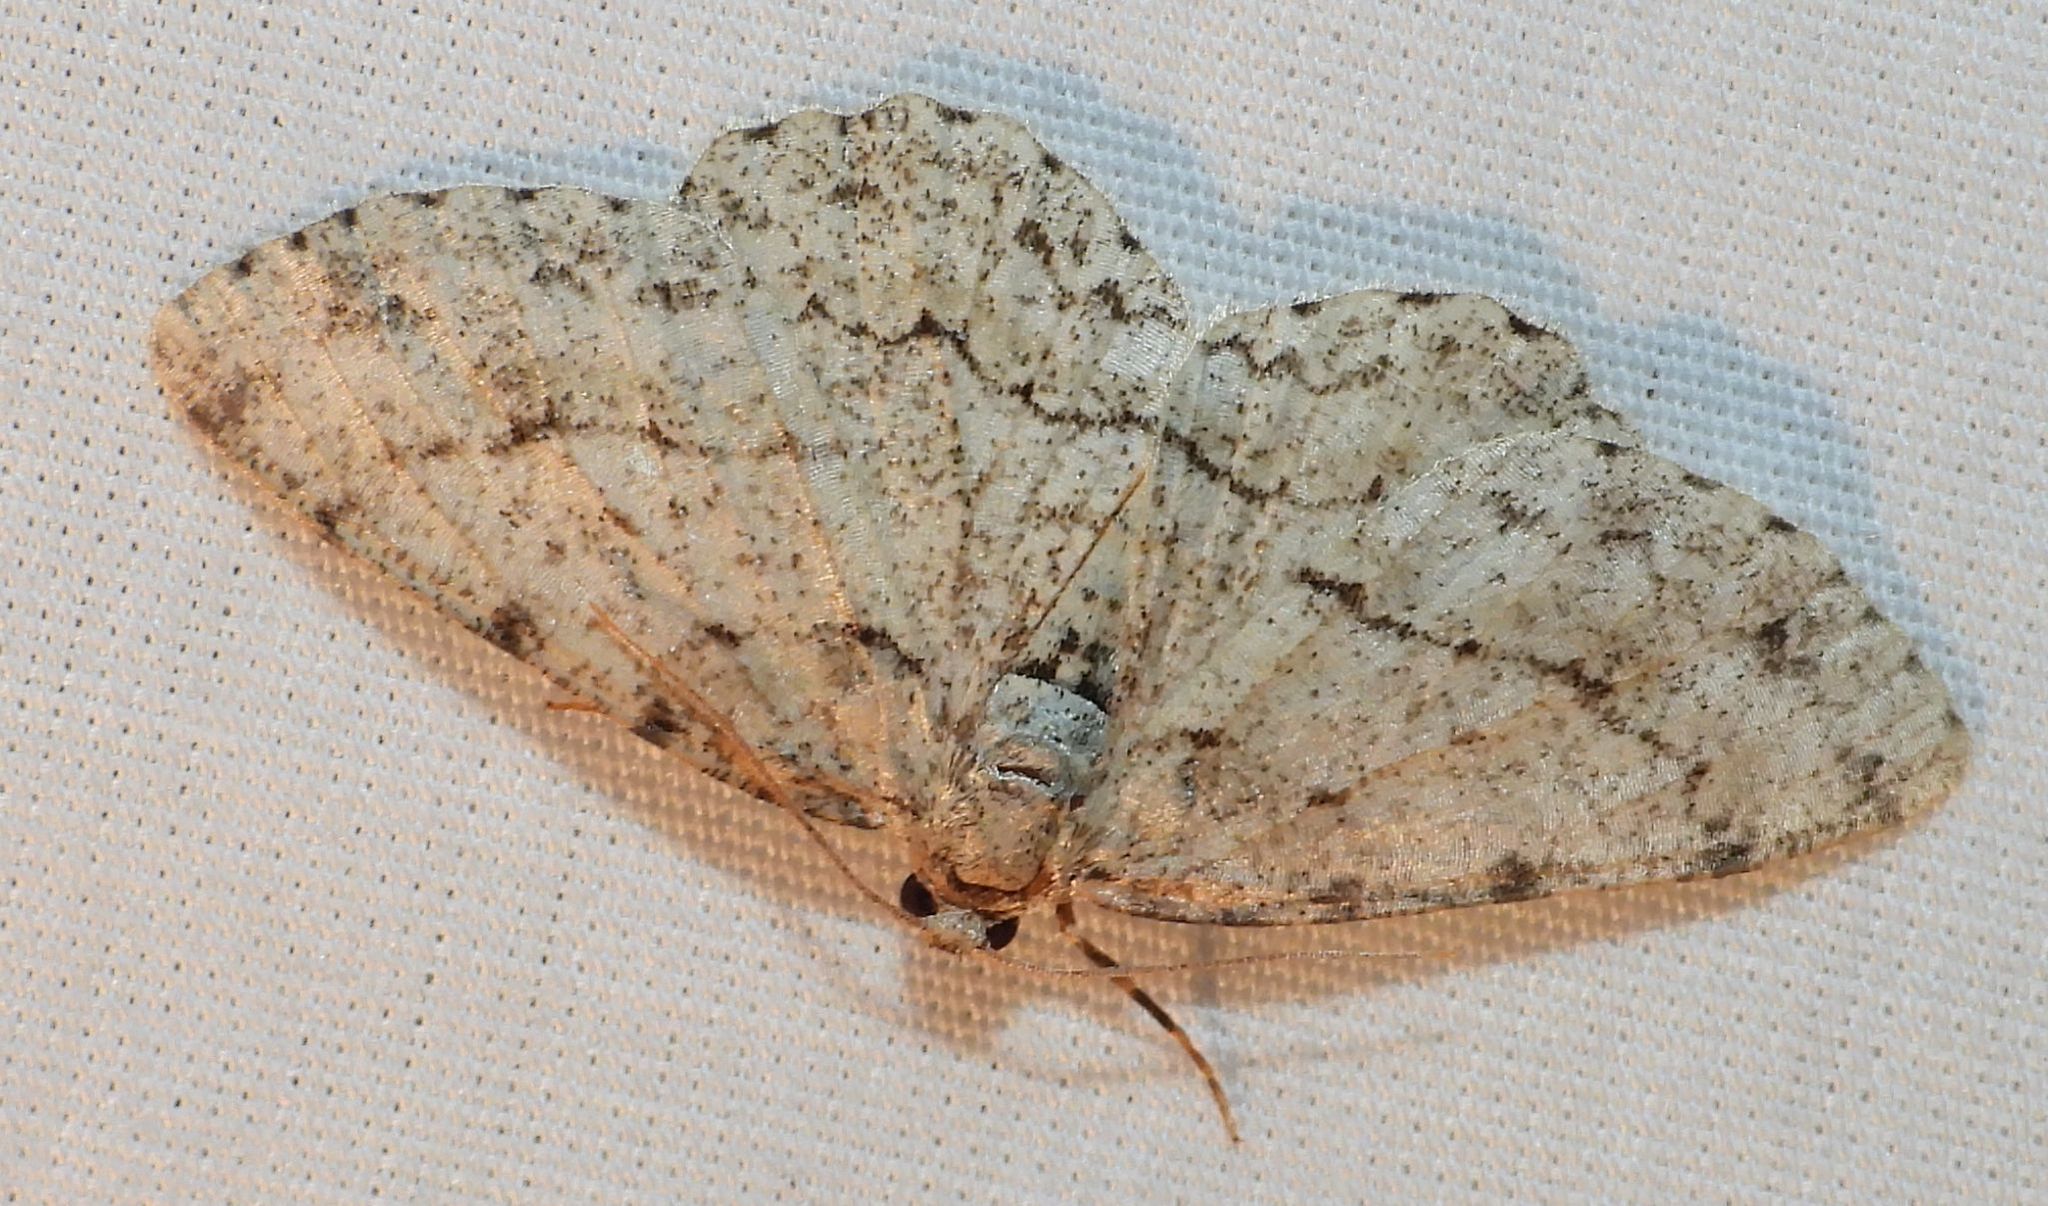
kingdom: Animalia
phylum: Arthropoda
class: Insecta
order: Lepidoptera
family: Geometridae
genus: Ectropis
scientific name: Ectropis crepuscularia
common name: Engrailed
